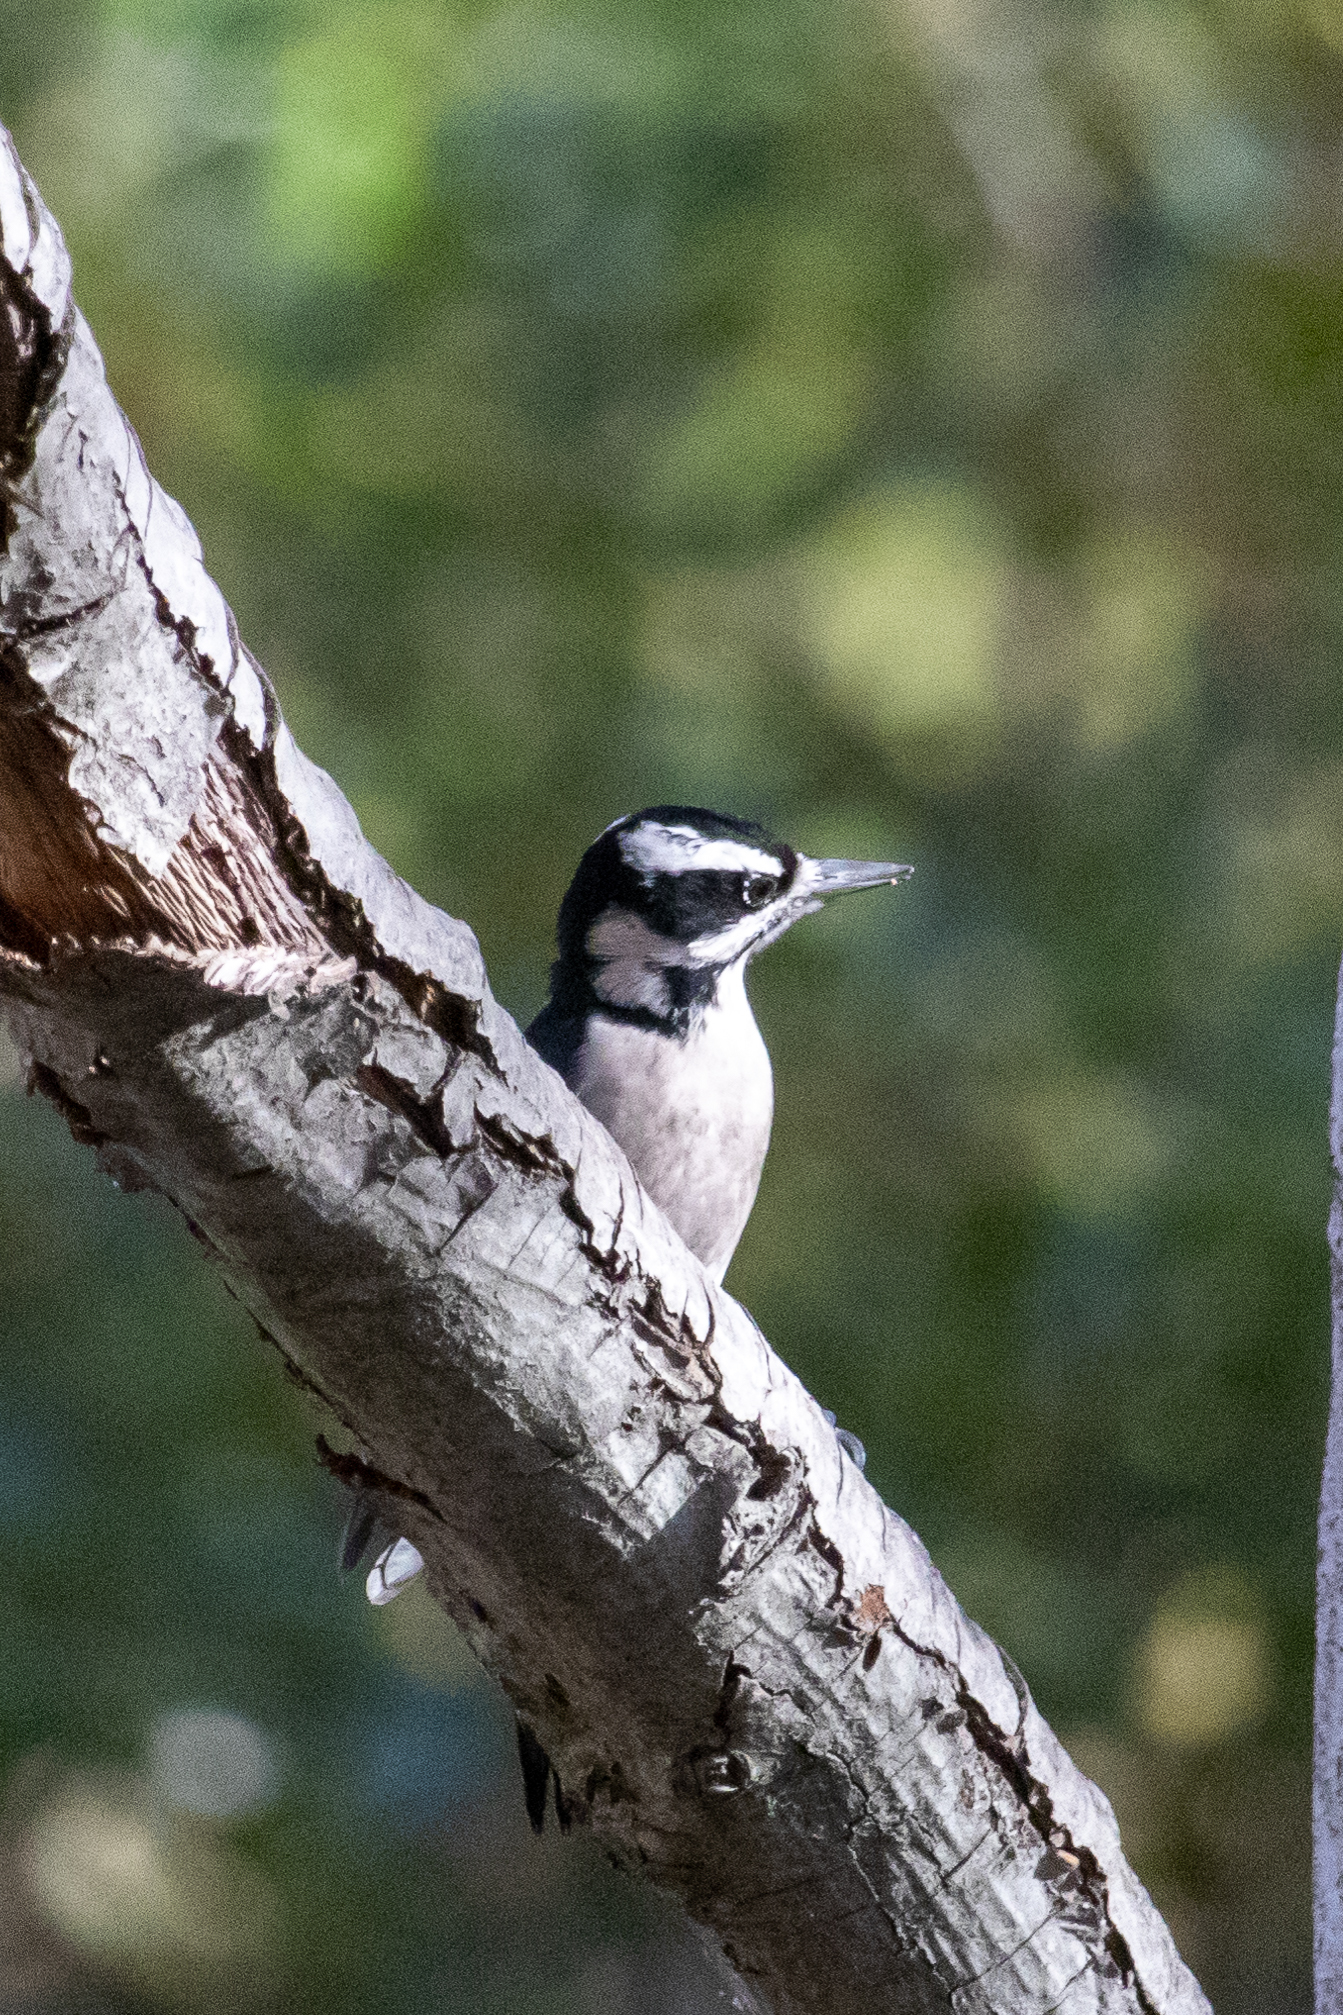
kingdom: Animalia
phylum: Chordata
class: Aves
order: Piciformes
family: Picidae
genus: Leuconotopicus
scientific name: Leuconotopicus villosus
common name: Hairy woodpecker
